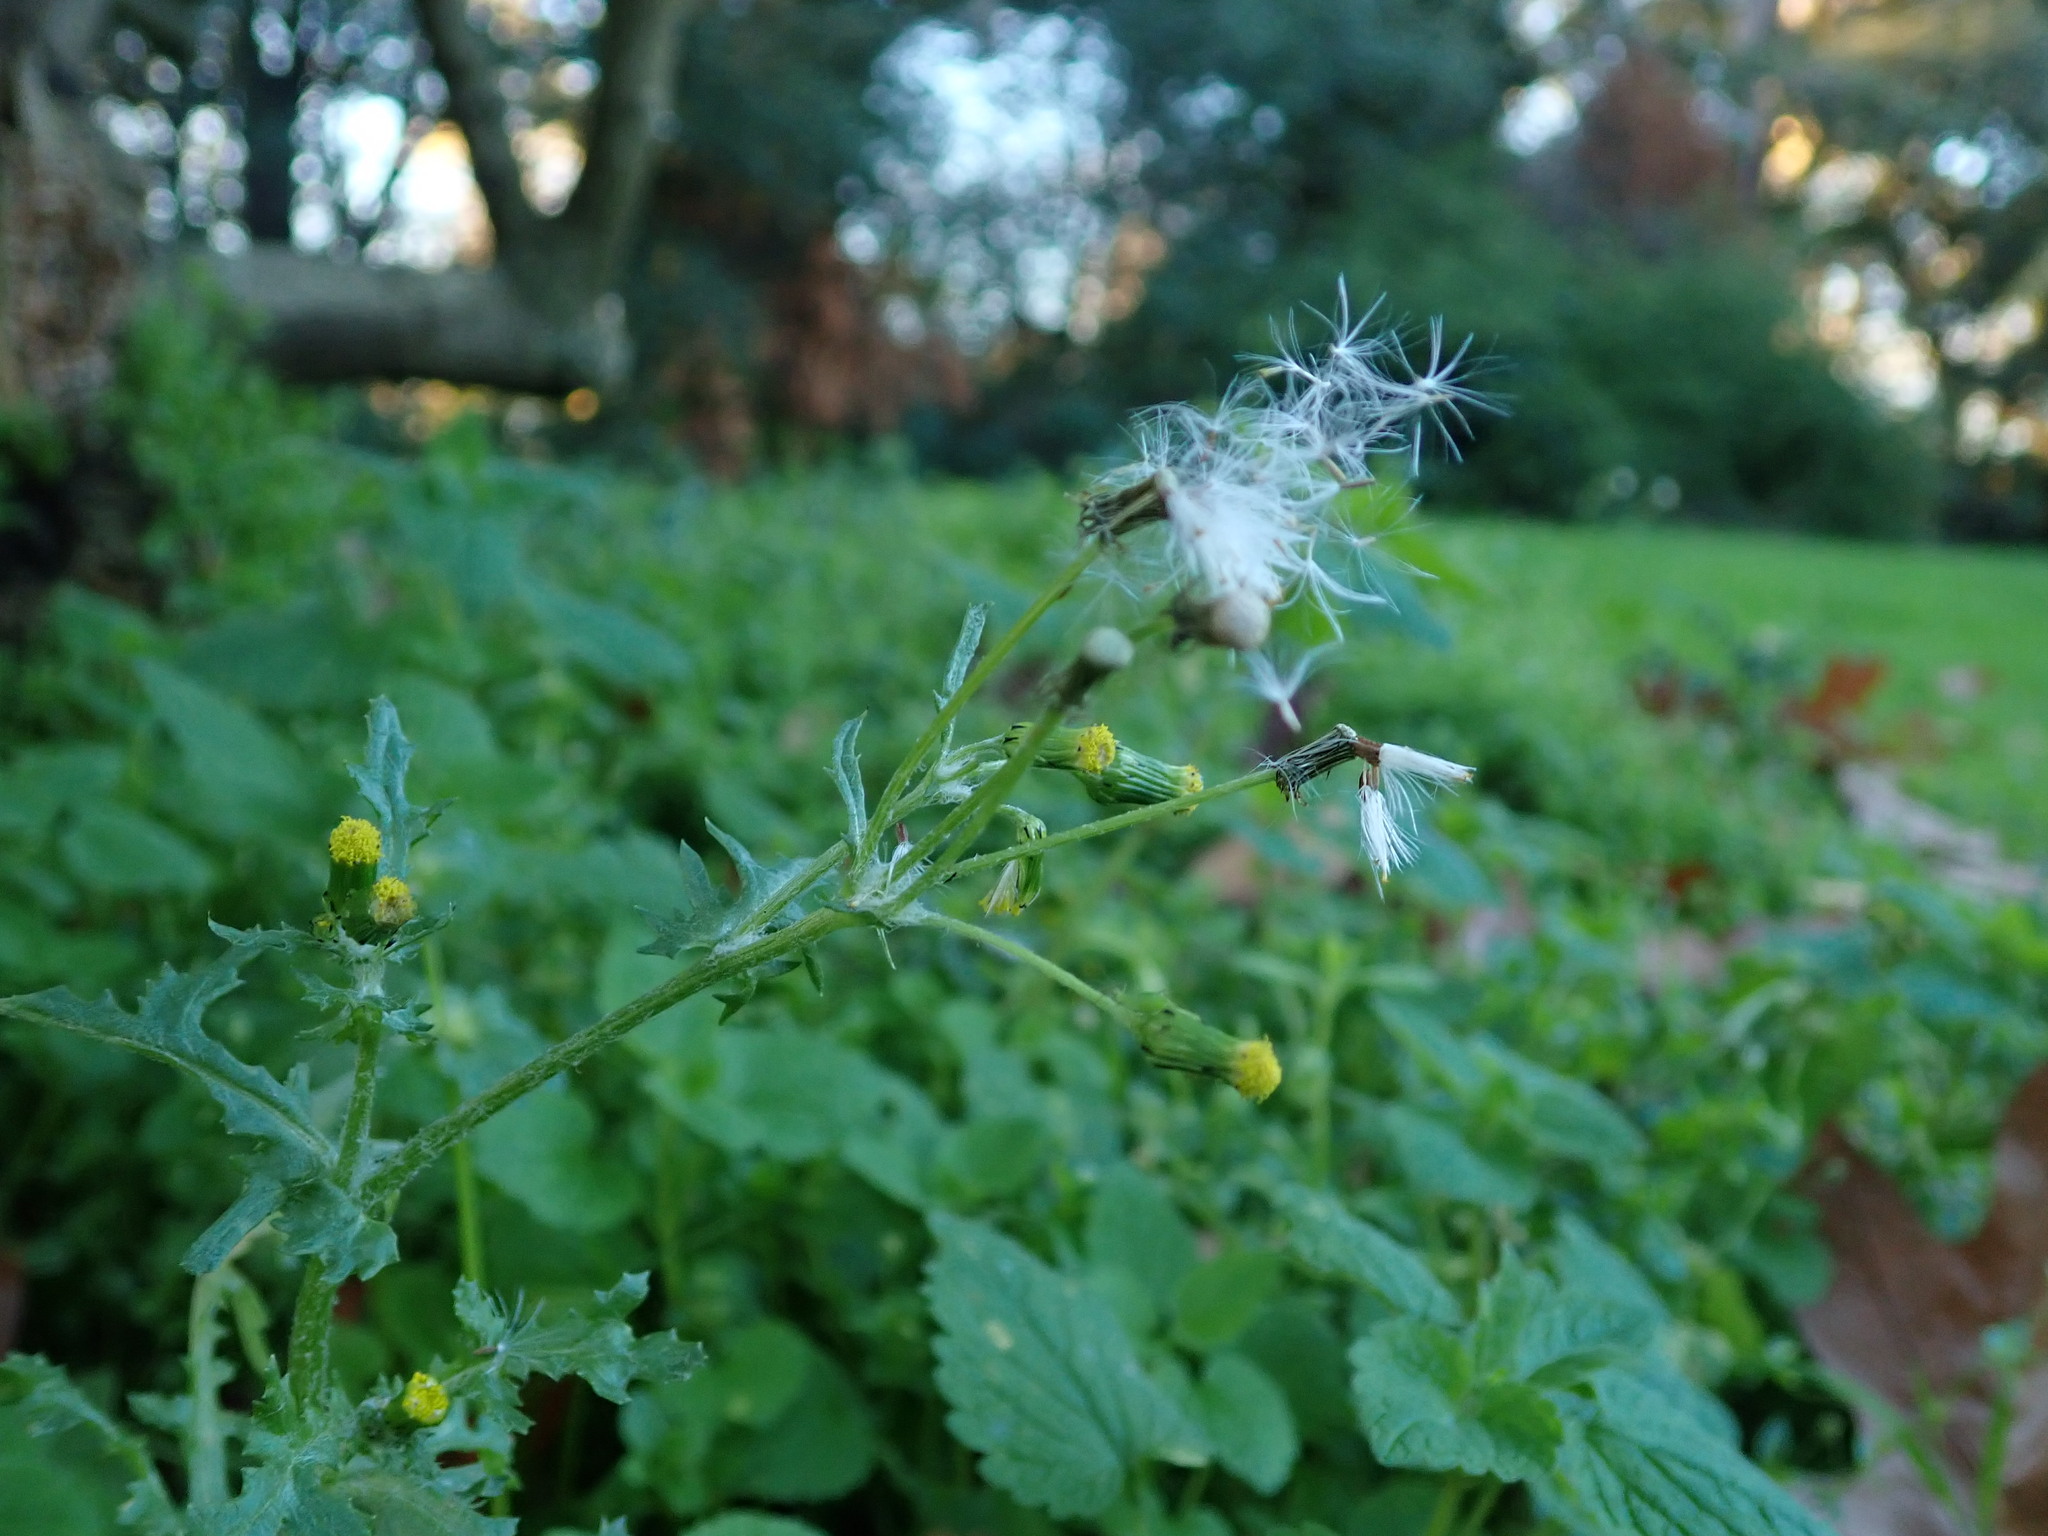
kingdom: Plantae
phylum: Tracheophyta
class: Magnoliopsida
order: Asterales
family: Asteraceae
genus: Senecio
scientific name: Senecio vulgaris
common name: Old-man-in-the-spring
